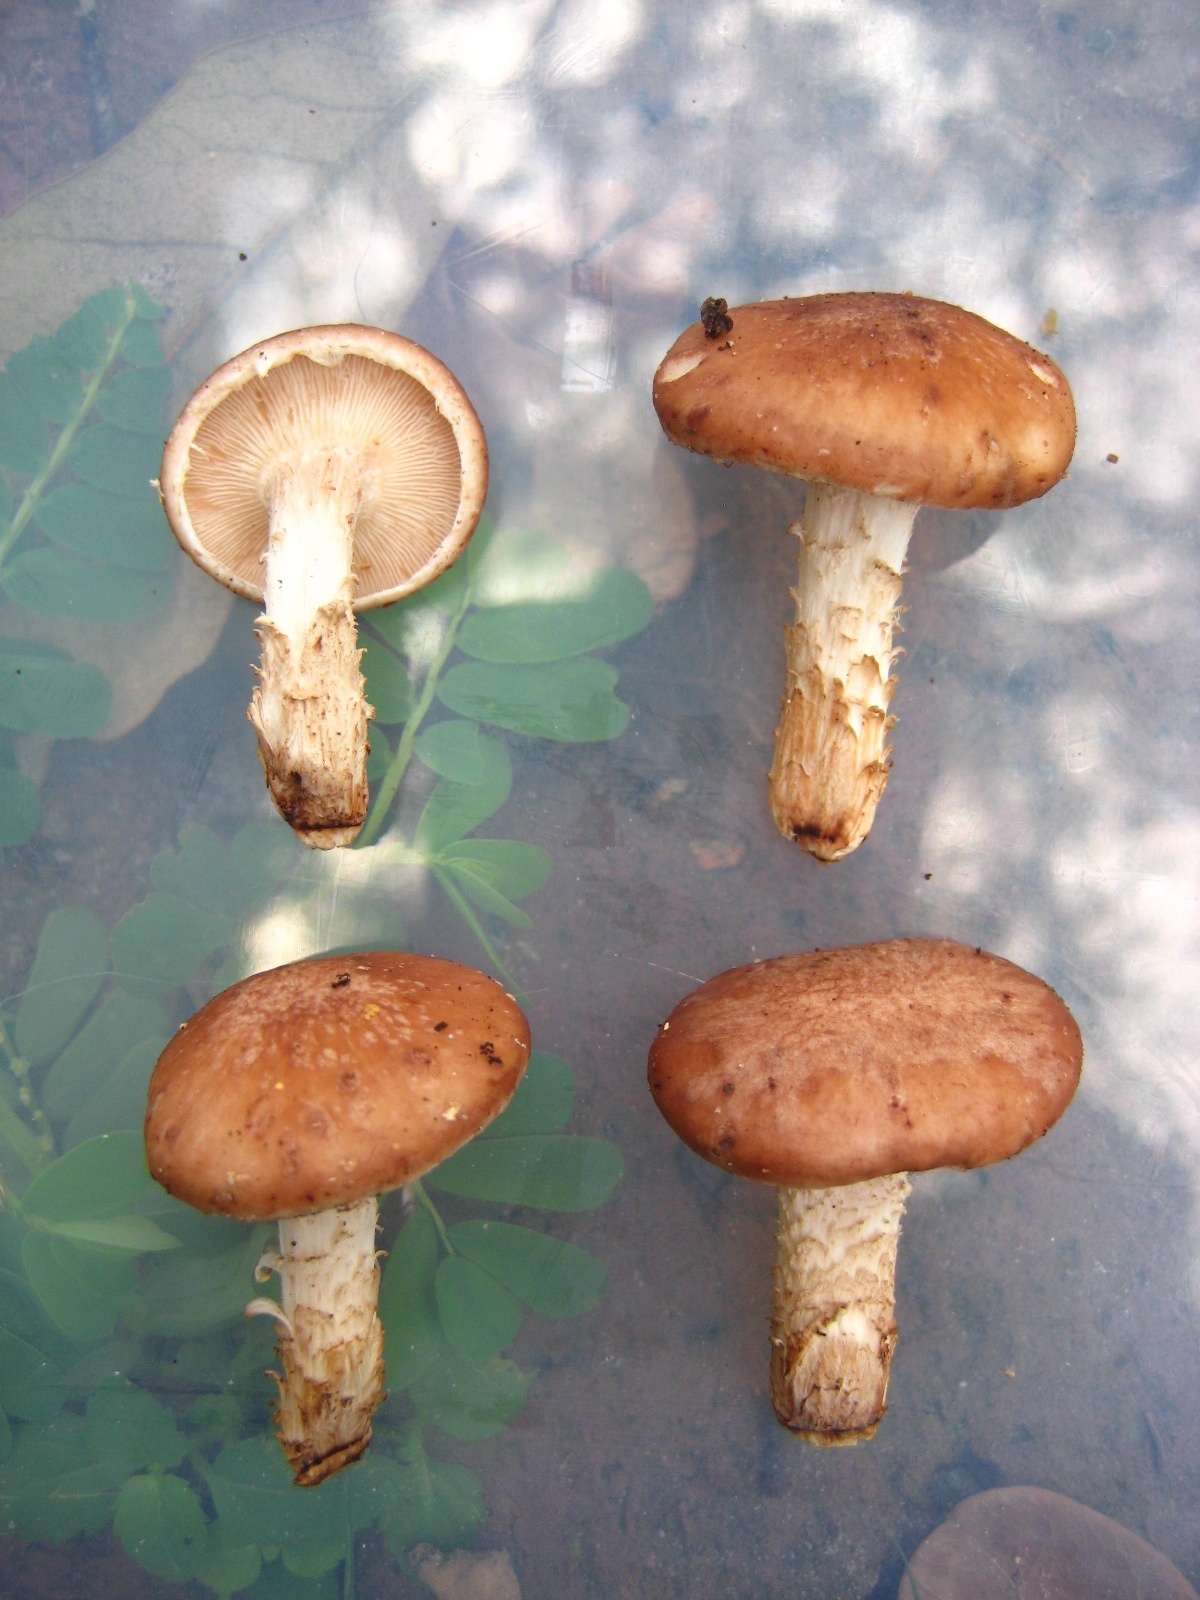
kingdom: Fungi
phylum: Basidiomycota
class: Agaricomycetes
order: Agaricales
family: Omphalotaceae
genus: Lentinula
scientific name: Lentinula raphanica
